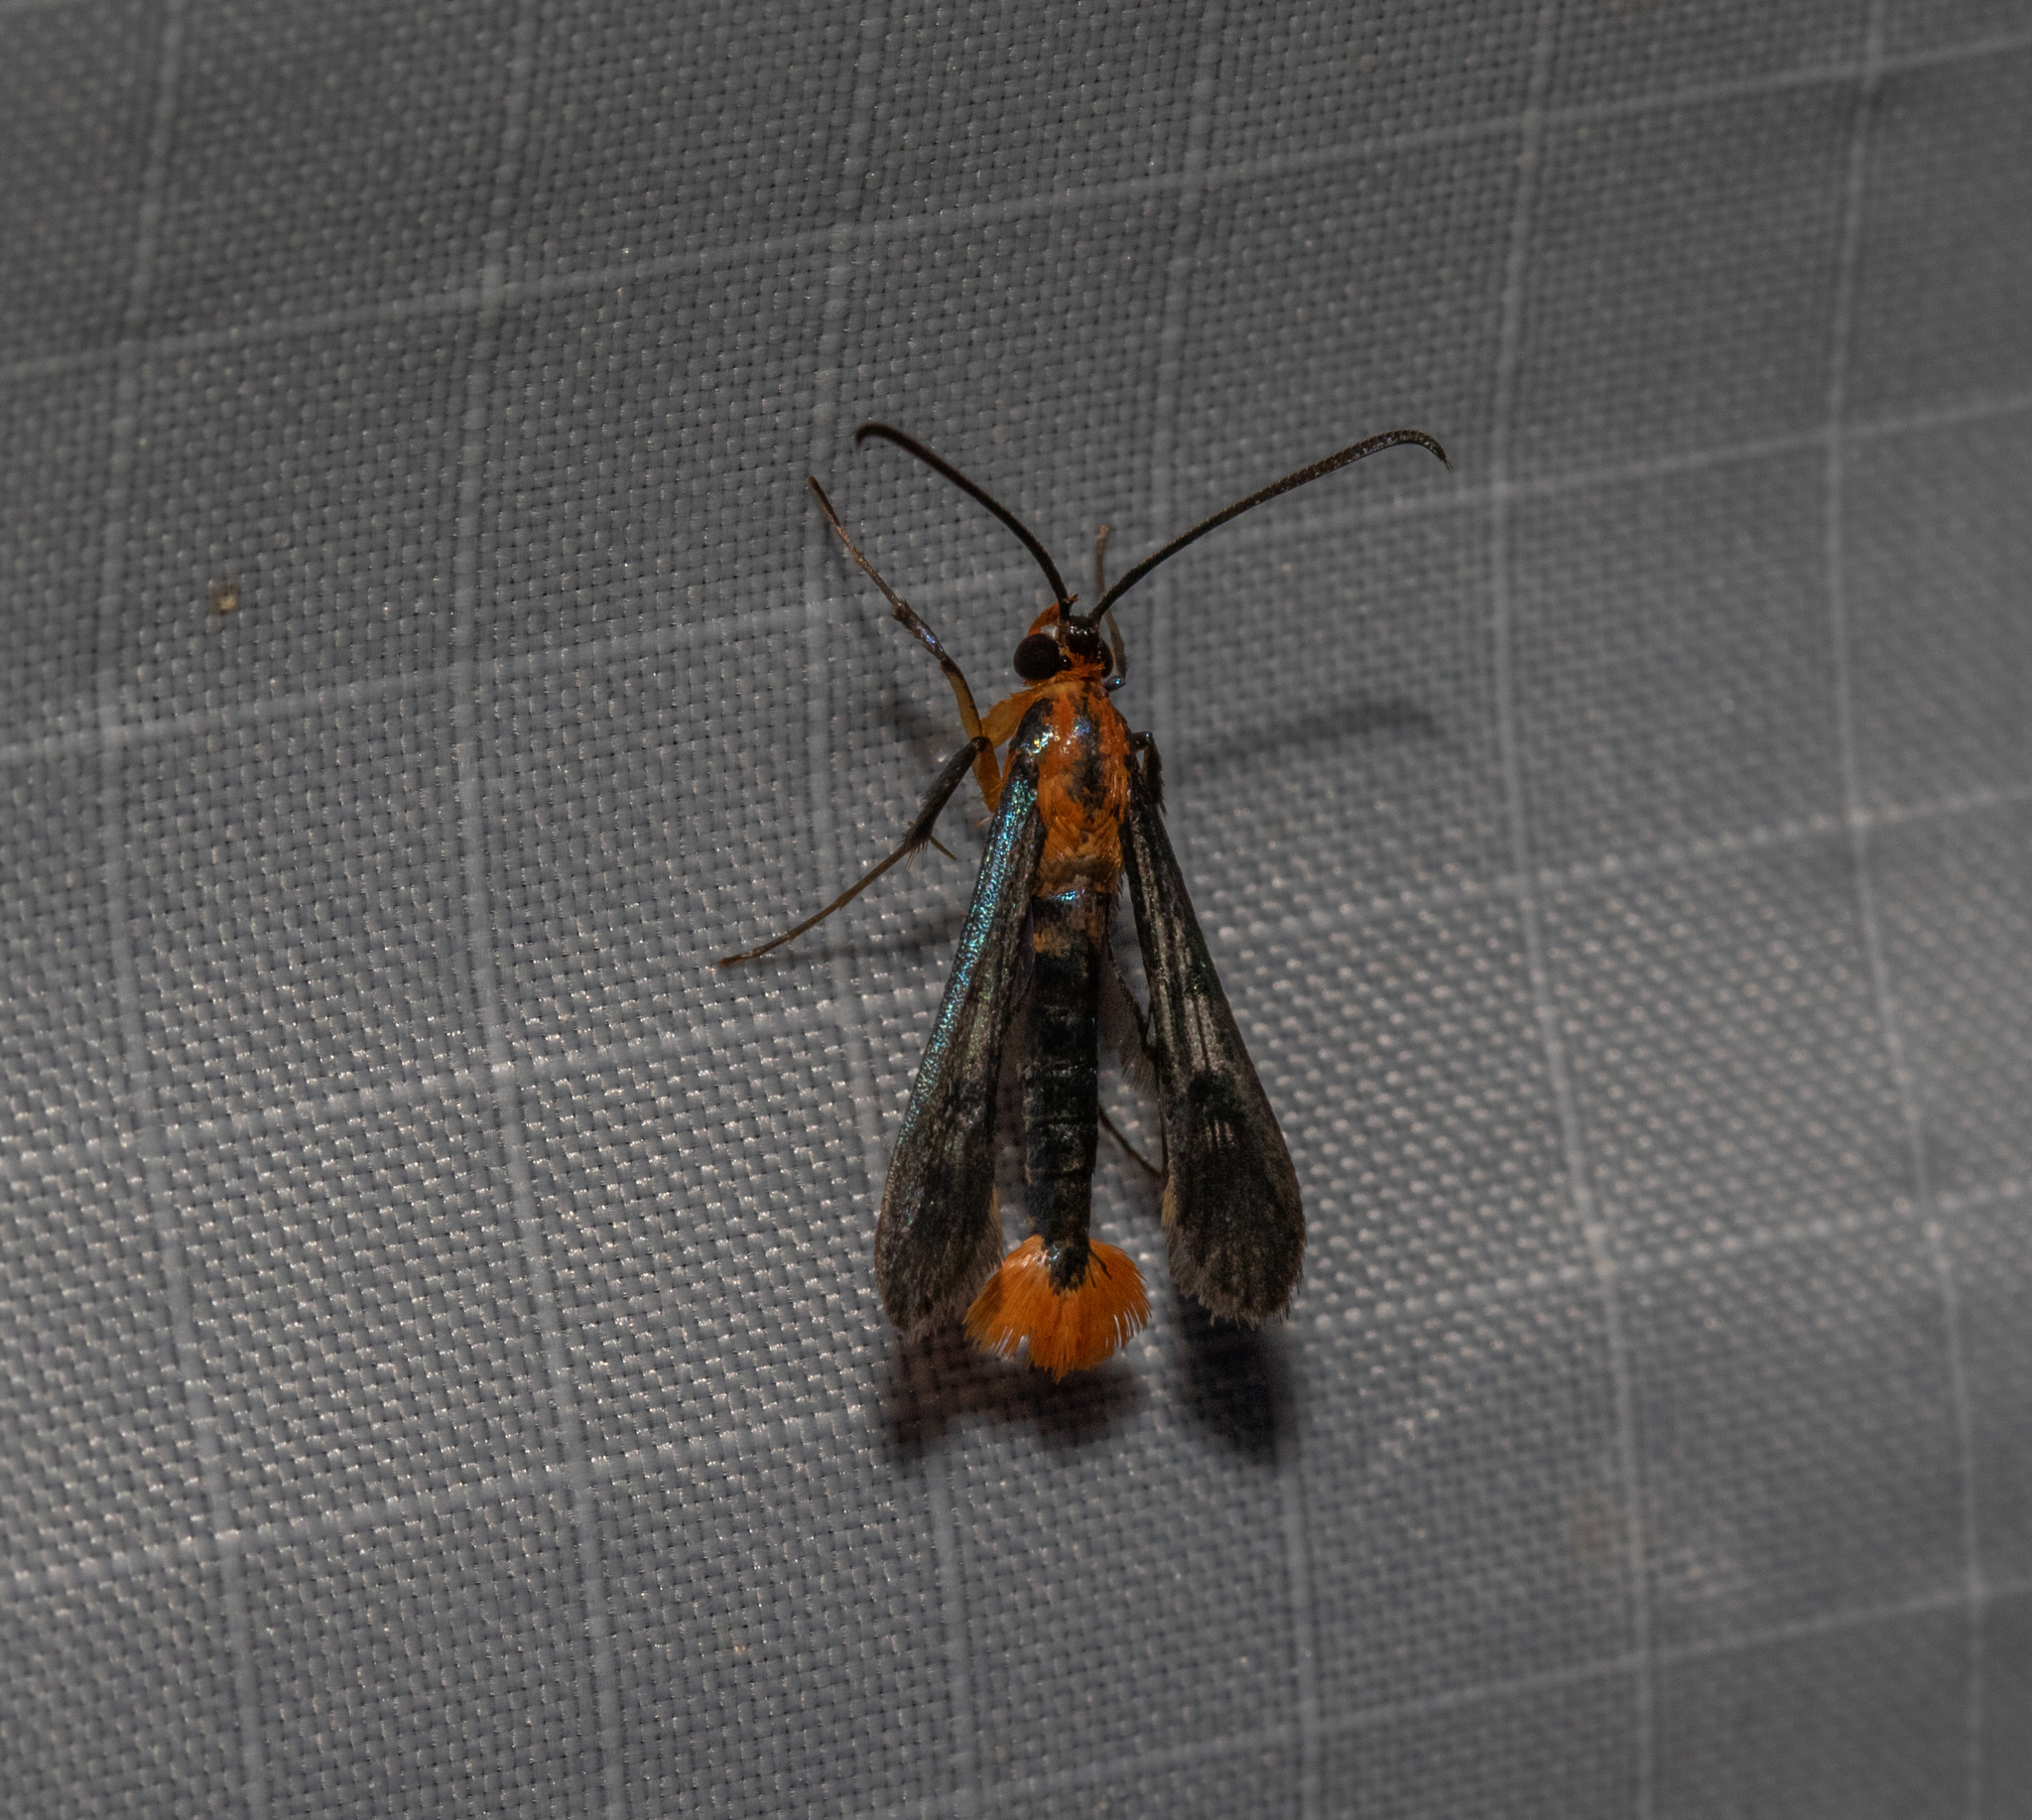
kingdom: Animalia
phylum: Arthropoda
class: Insecta
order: Lepidoptera
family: Sesiidae
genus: Synanthedon
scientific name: Synanthedon acerni
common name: Maple callus borer moth
